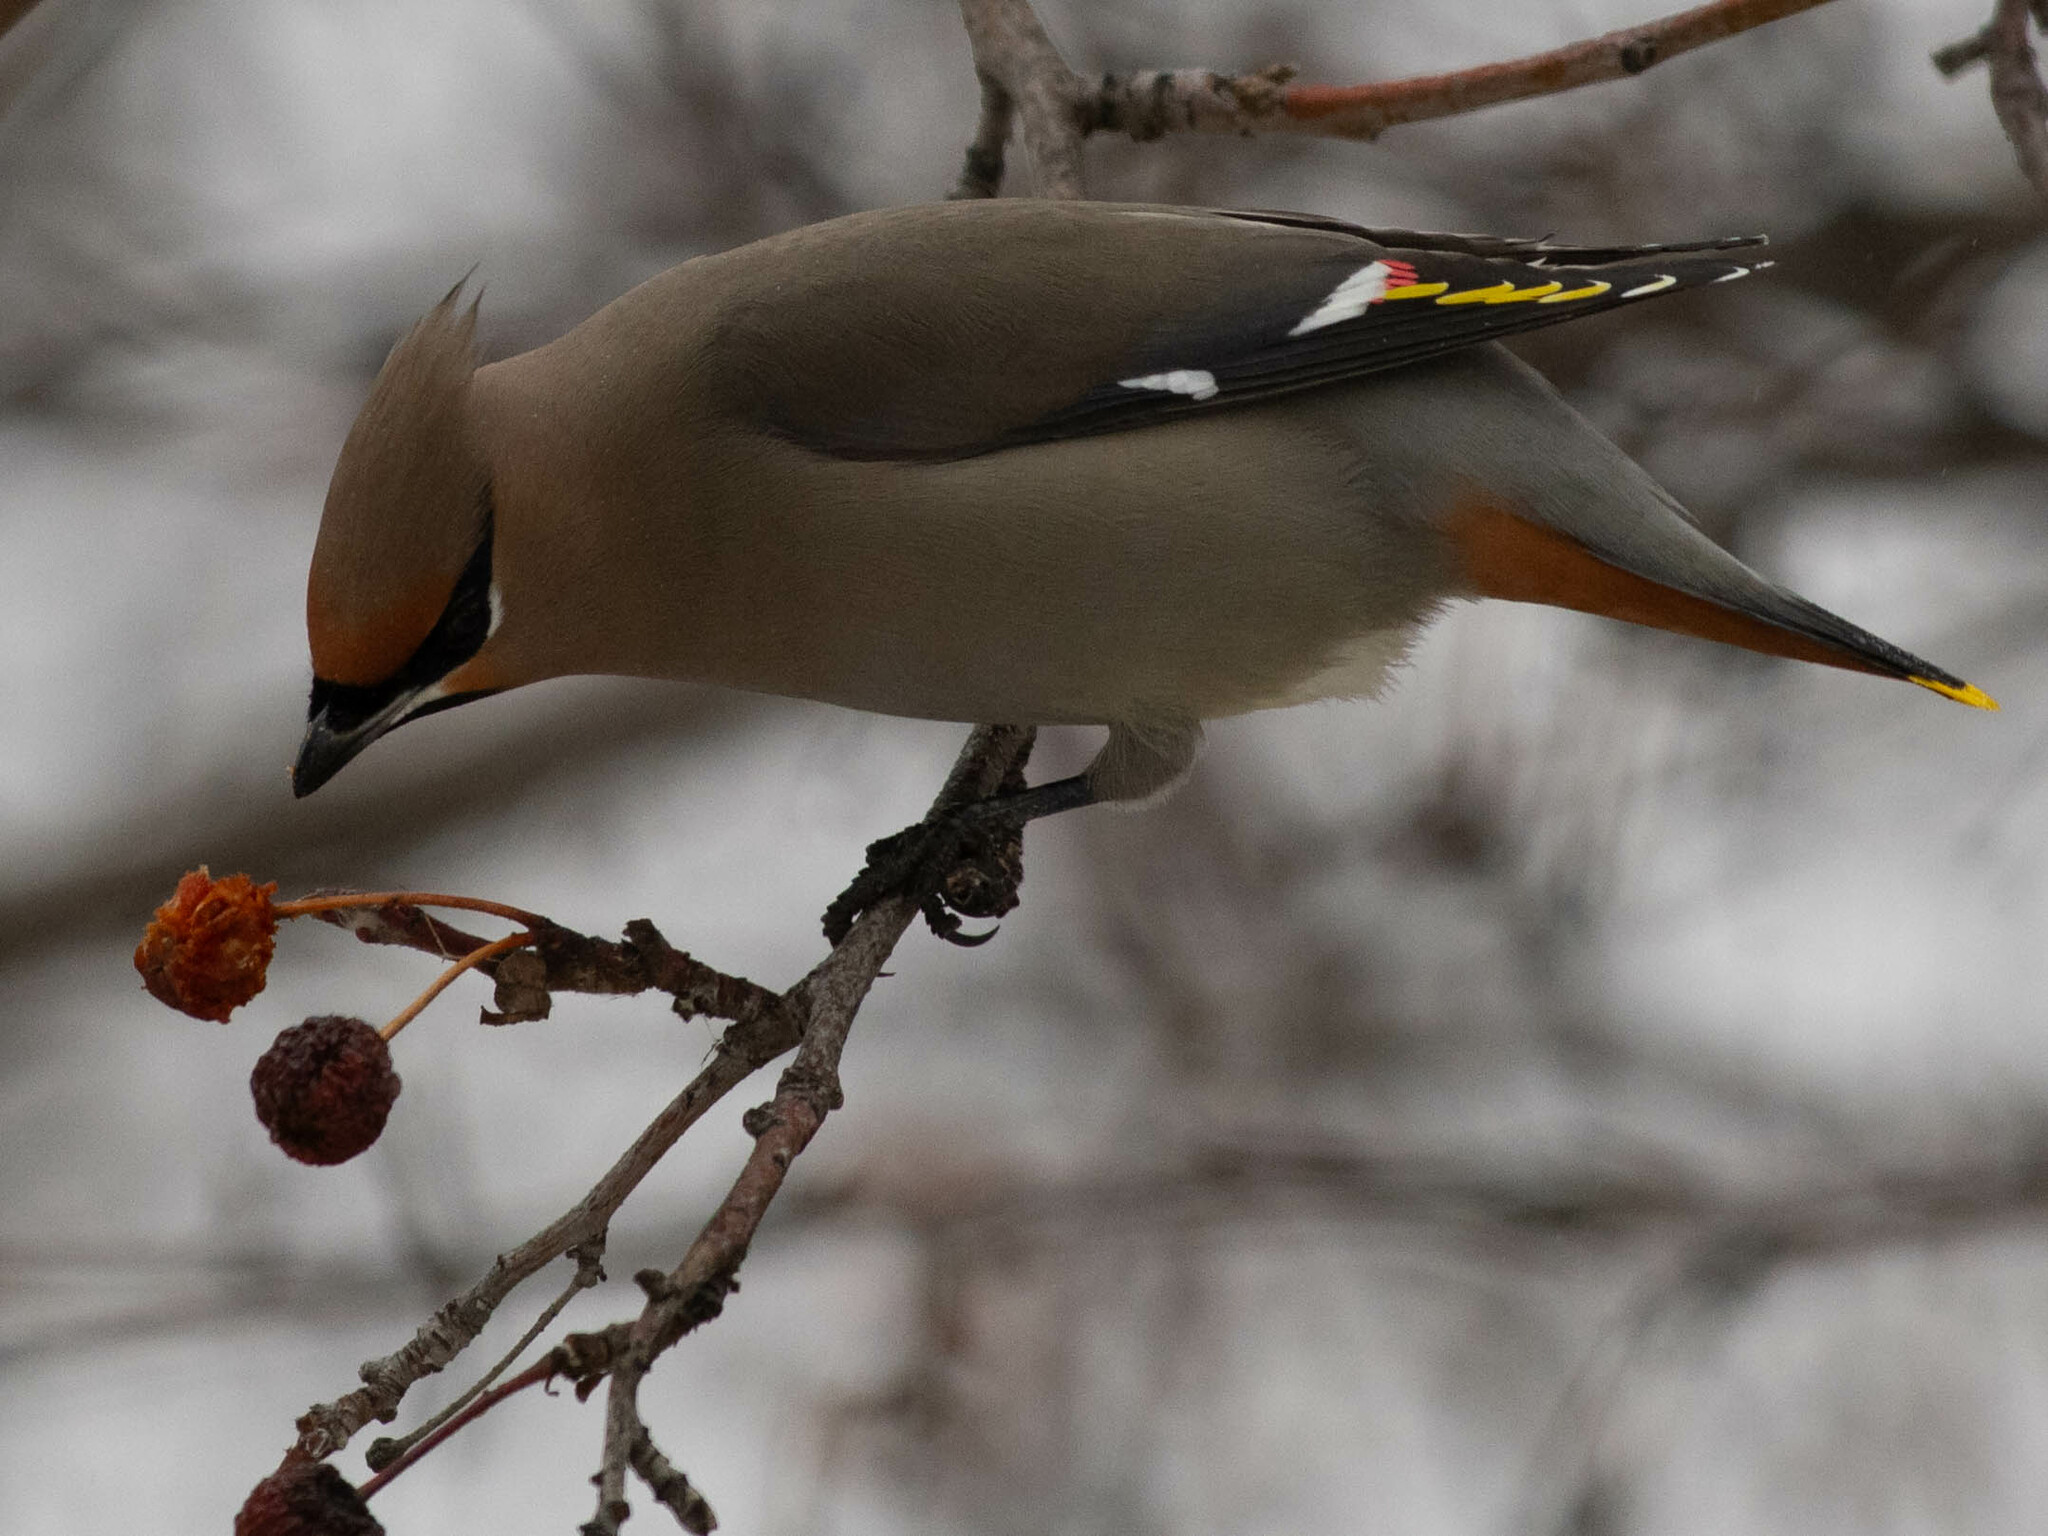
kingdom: Animalia
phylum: Chordata
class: Aves
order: Passeriformes
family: Bombycillidae
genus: Bombycilla
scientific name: Bombycilla garrulus
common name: Bohemian waxwing
